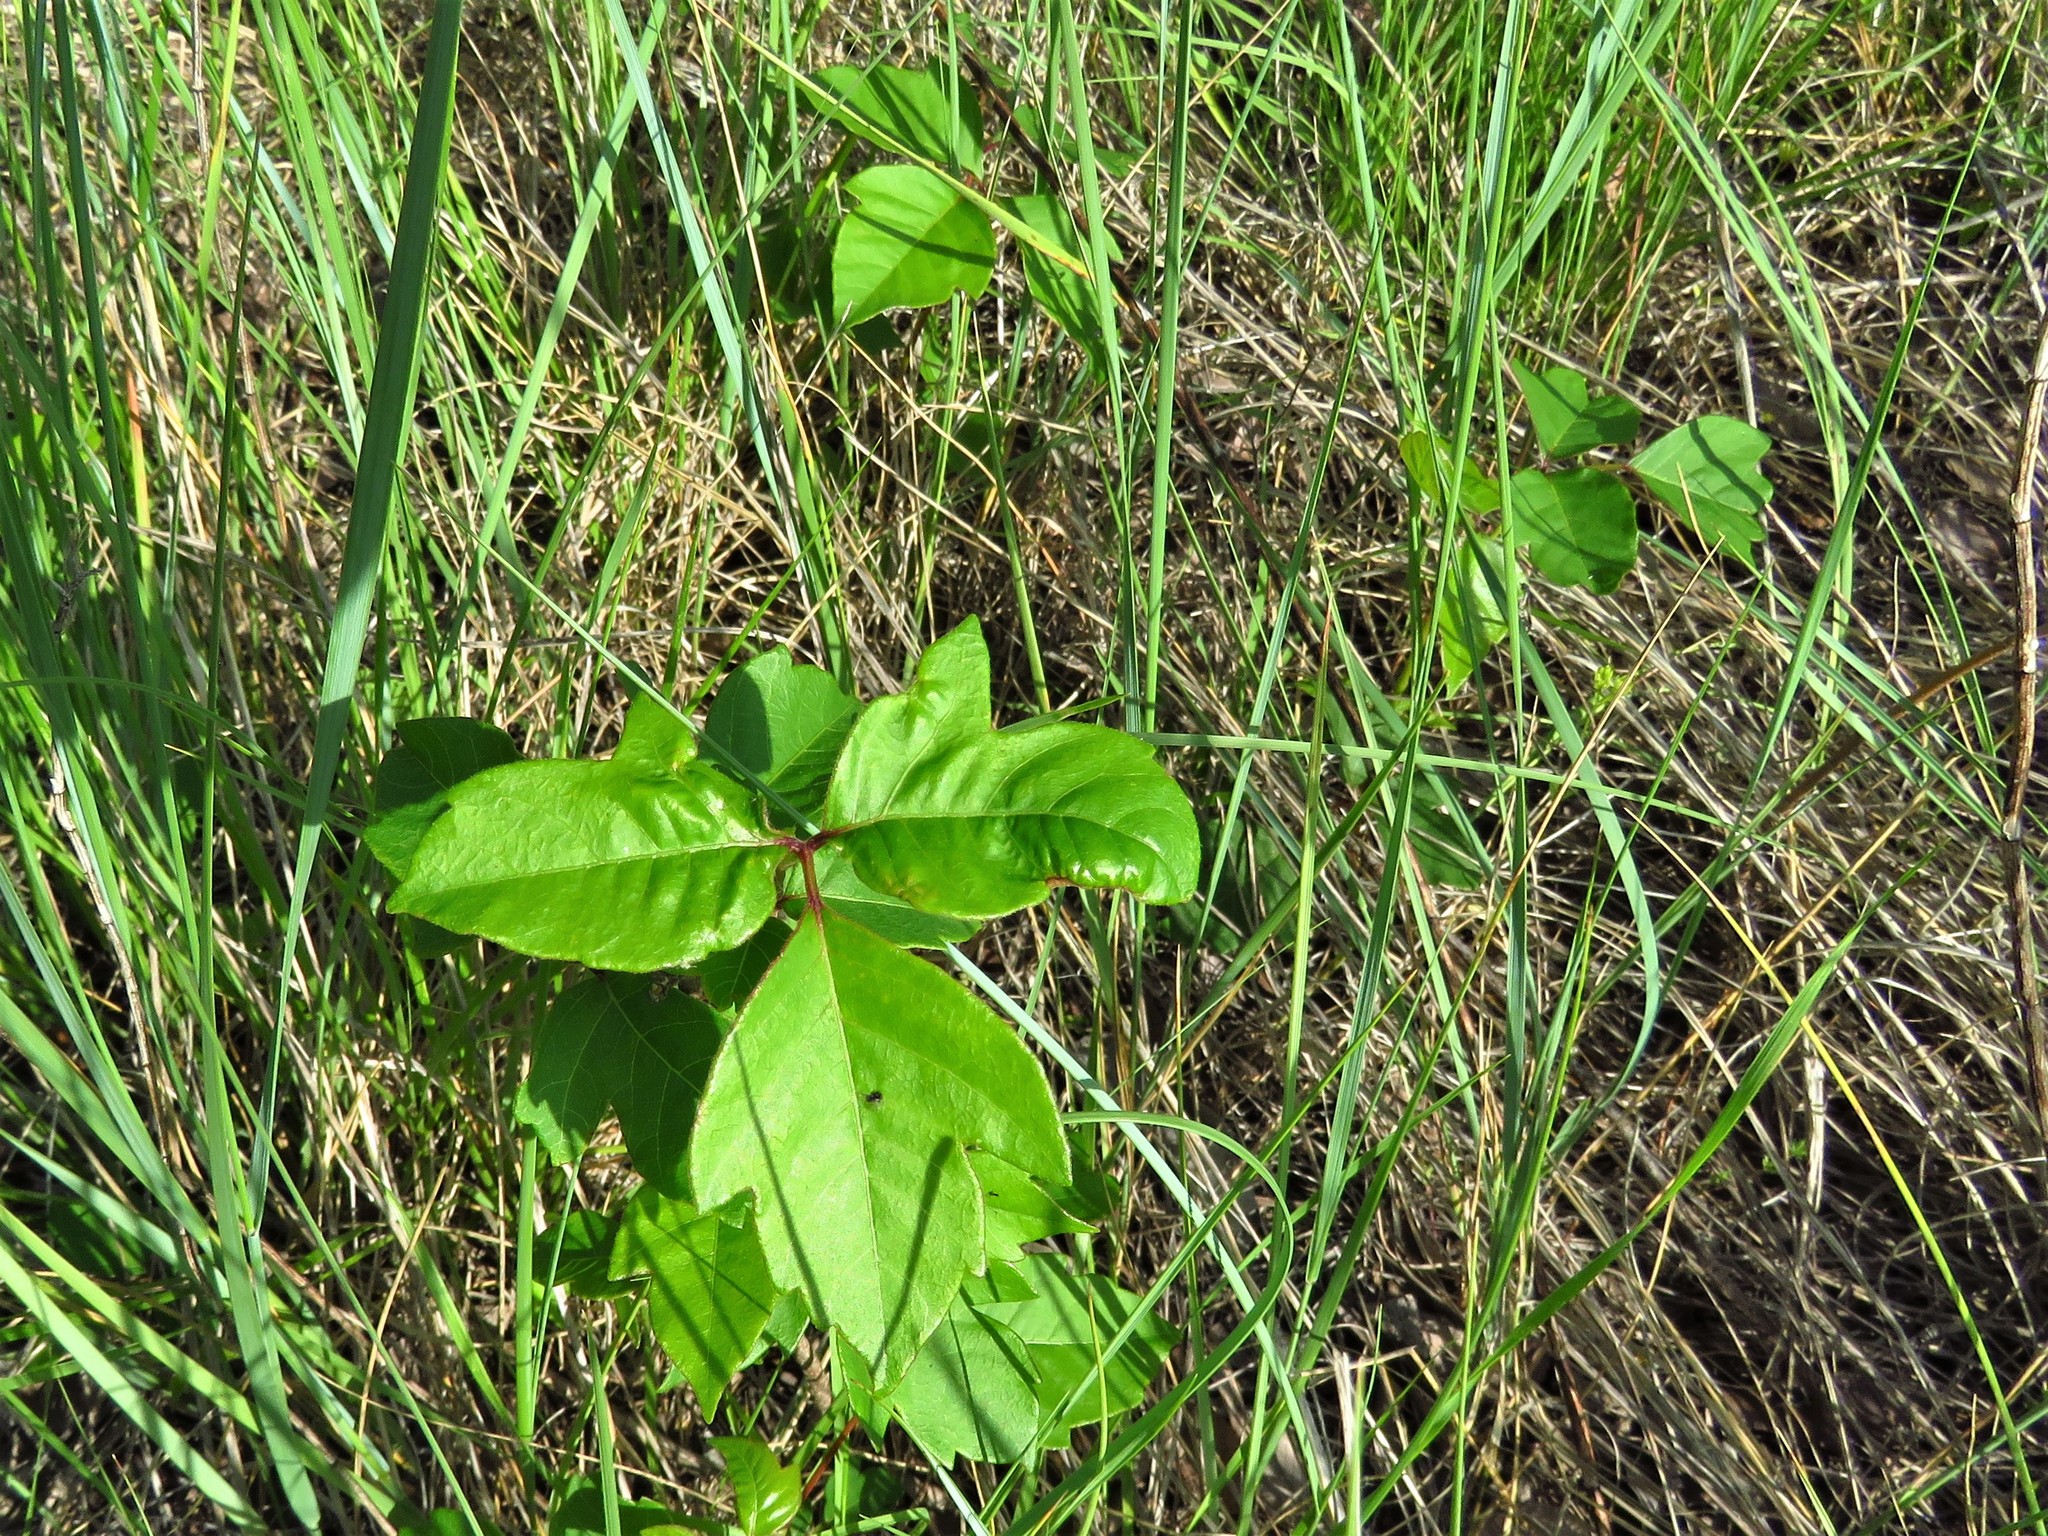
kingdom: Plantae
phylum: Tracheophyta
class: Magnoliopsida
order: Sapindales
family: Anacardiaceae
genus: Toxicodendron
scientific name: Toxicodendron radicans
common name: Poison ivy
